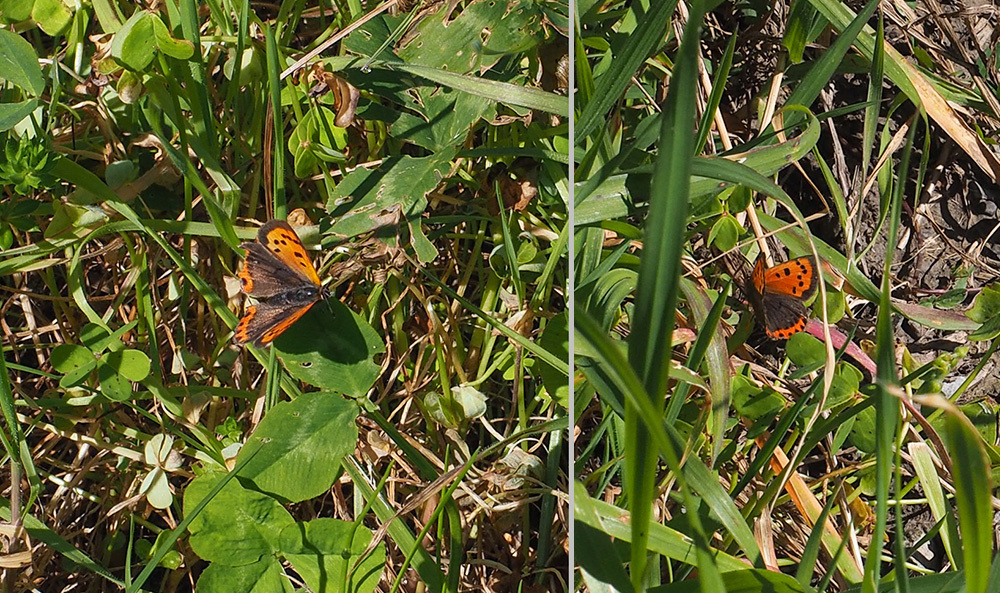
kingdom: Animalia
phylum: Arthropoda
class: Insecta
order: Lepidoptera
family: Lycaenidae
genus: Lycaena
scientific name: Lycaena phlaeas
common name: Small copper
